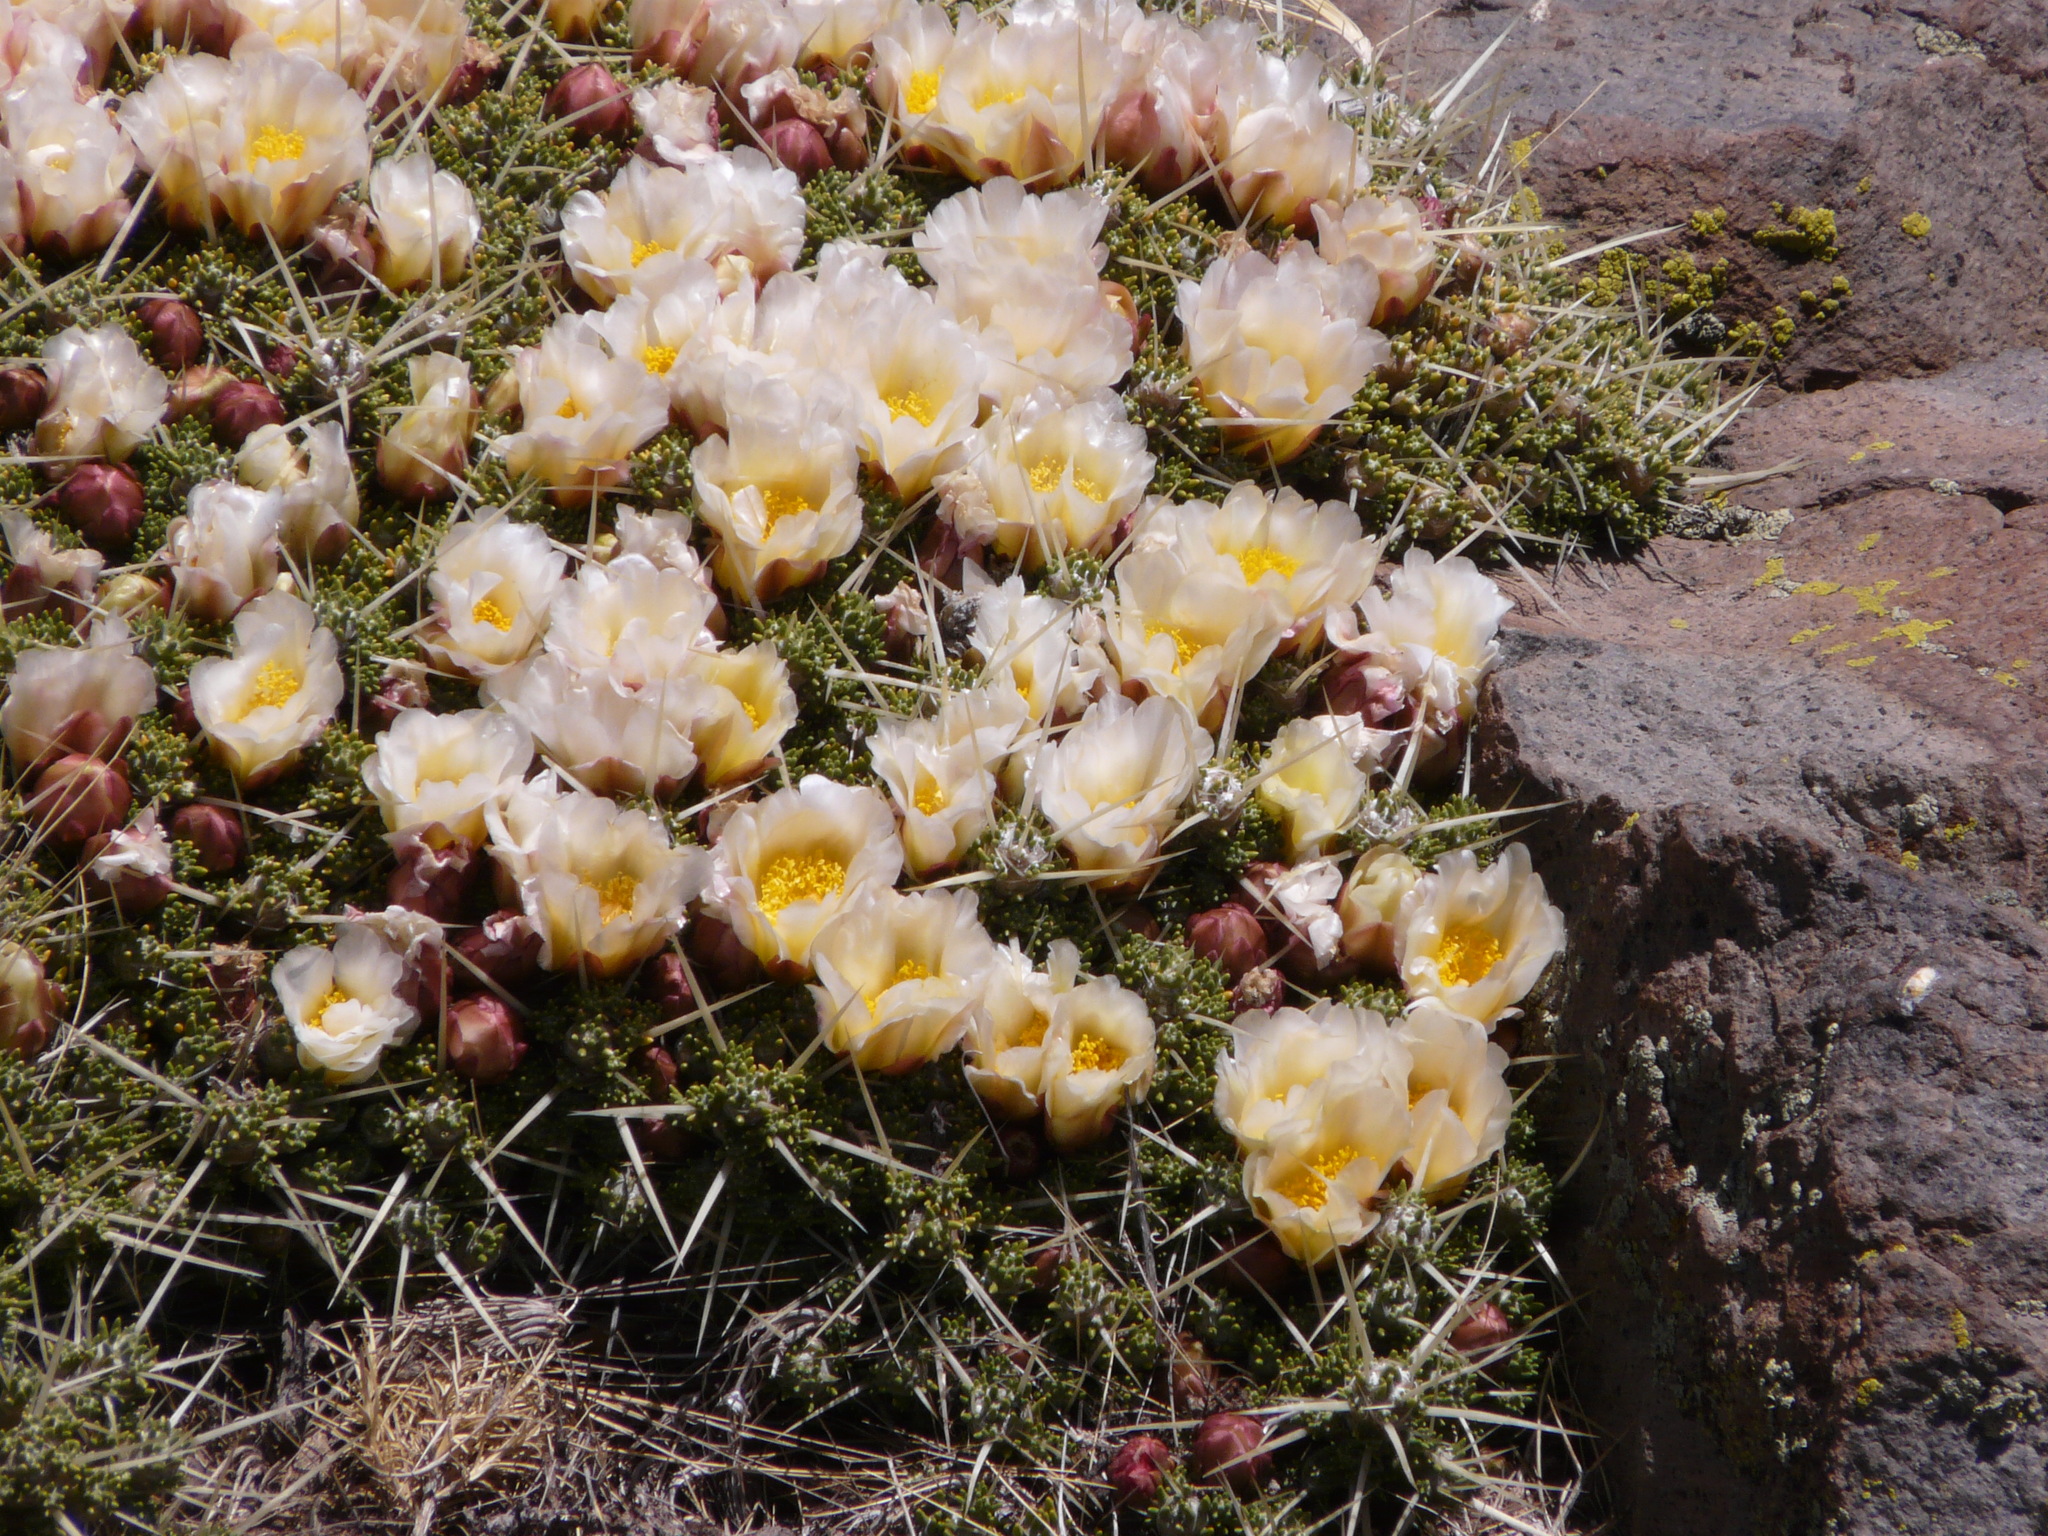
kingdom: Plantae
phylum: Tracheophyta
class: Magnoliopsida
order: Caryophyllales
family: Cactaceae
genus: Maihuenia
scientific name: Maihuenia patagonica
